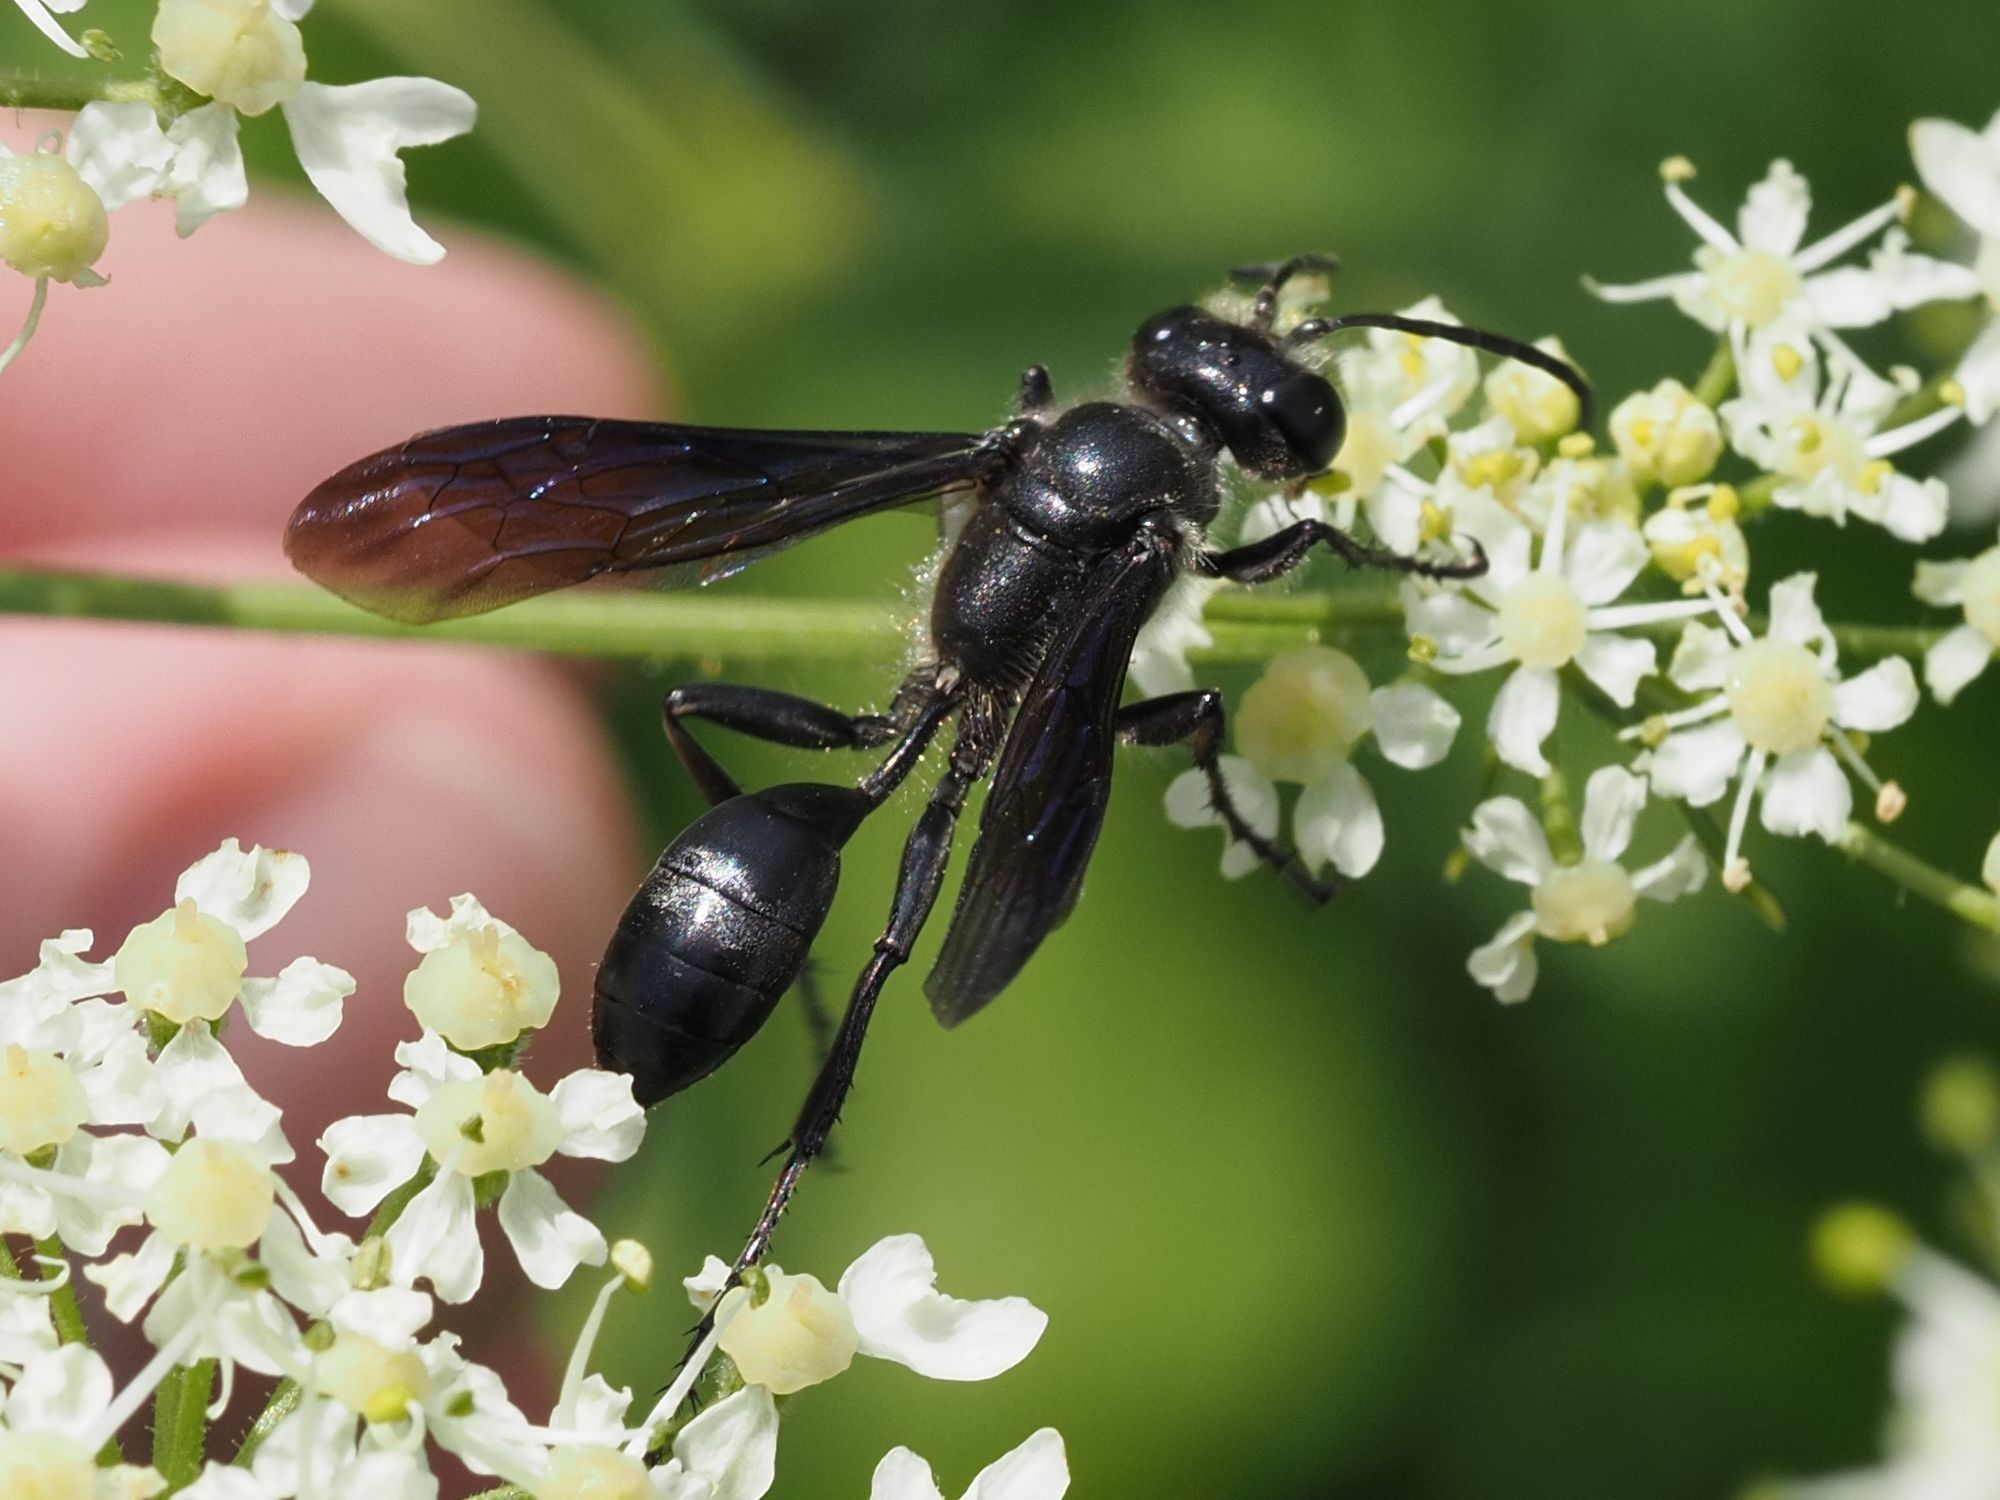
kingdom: Animalia
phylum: Arthropoda
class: Insecta
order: Hymenoptera
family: Sphecidae
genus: Isodontia
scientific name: Isodontia mexicana
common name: Mud dauber
